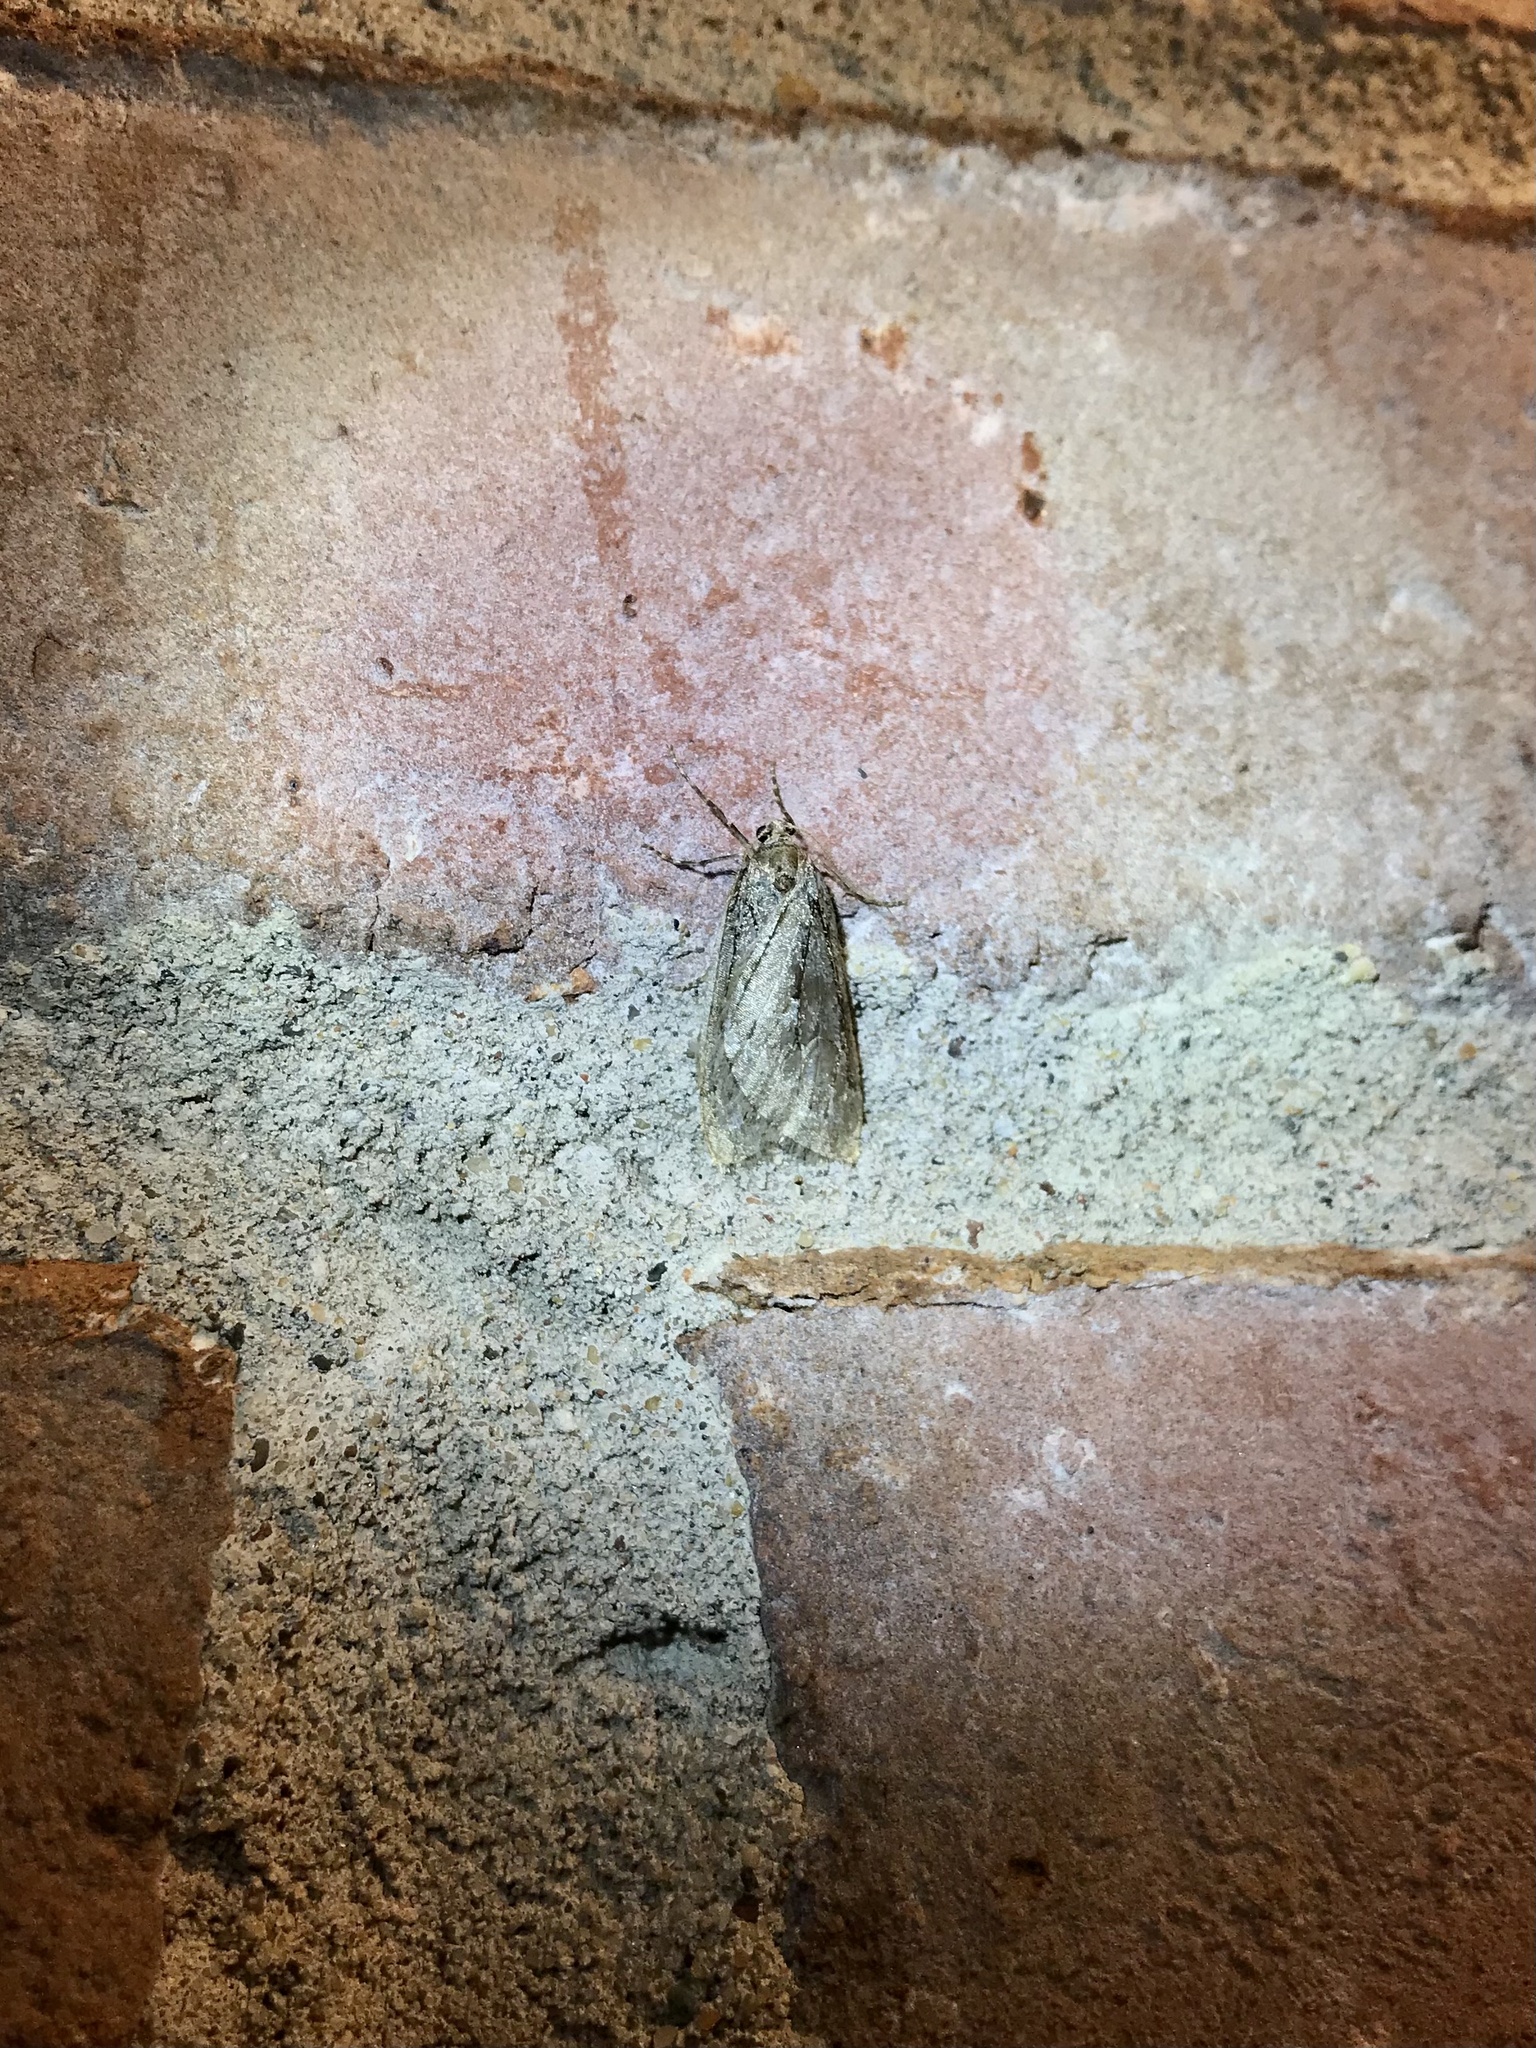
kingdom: Animalia
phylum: Arthropoda
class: Insecta
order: Lepidoptera
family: Geometridae
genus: Paleacrita
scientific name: Paleacrita vernata
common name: Spring cankerworm
